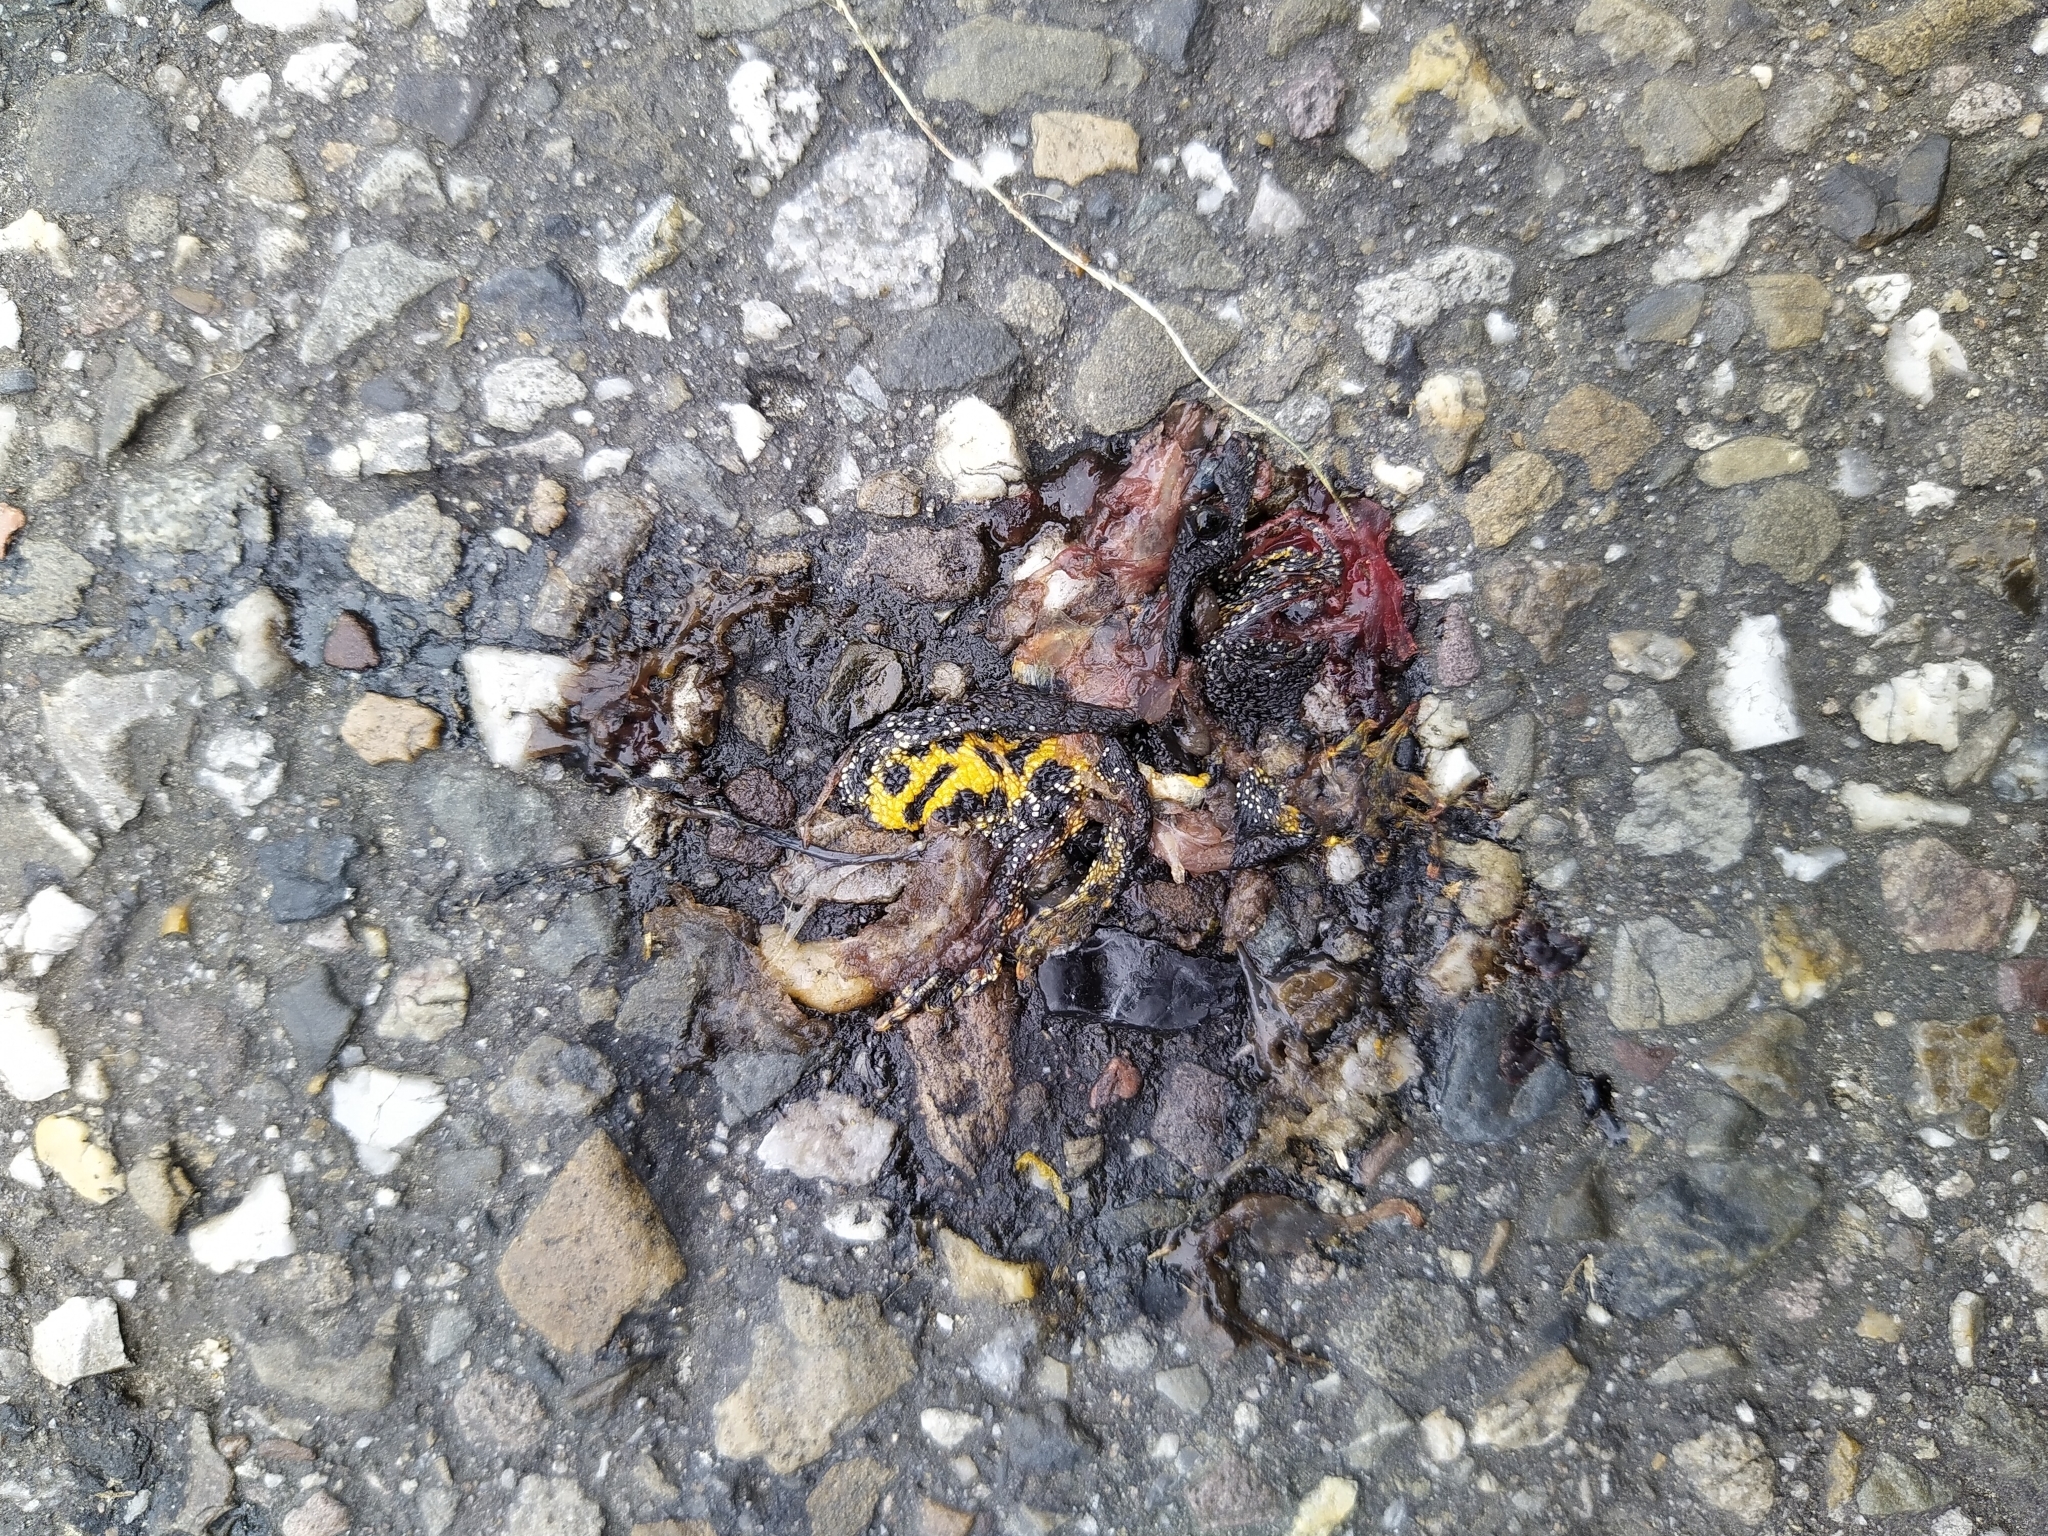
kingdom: Animalia
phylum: Chordata
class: Amphibia
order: Caudata
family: Salamandridae
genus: Triturus
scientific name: Triturus cristatus
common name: Crested newt
